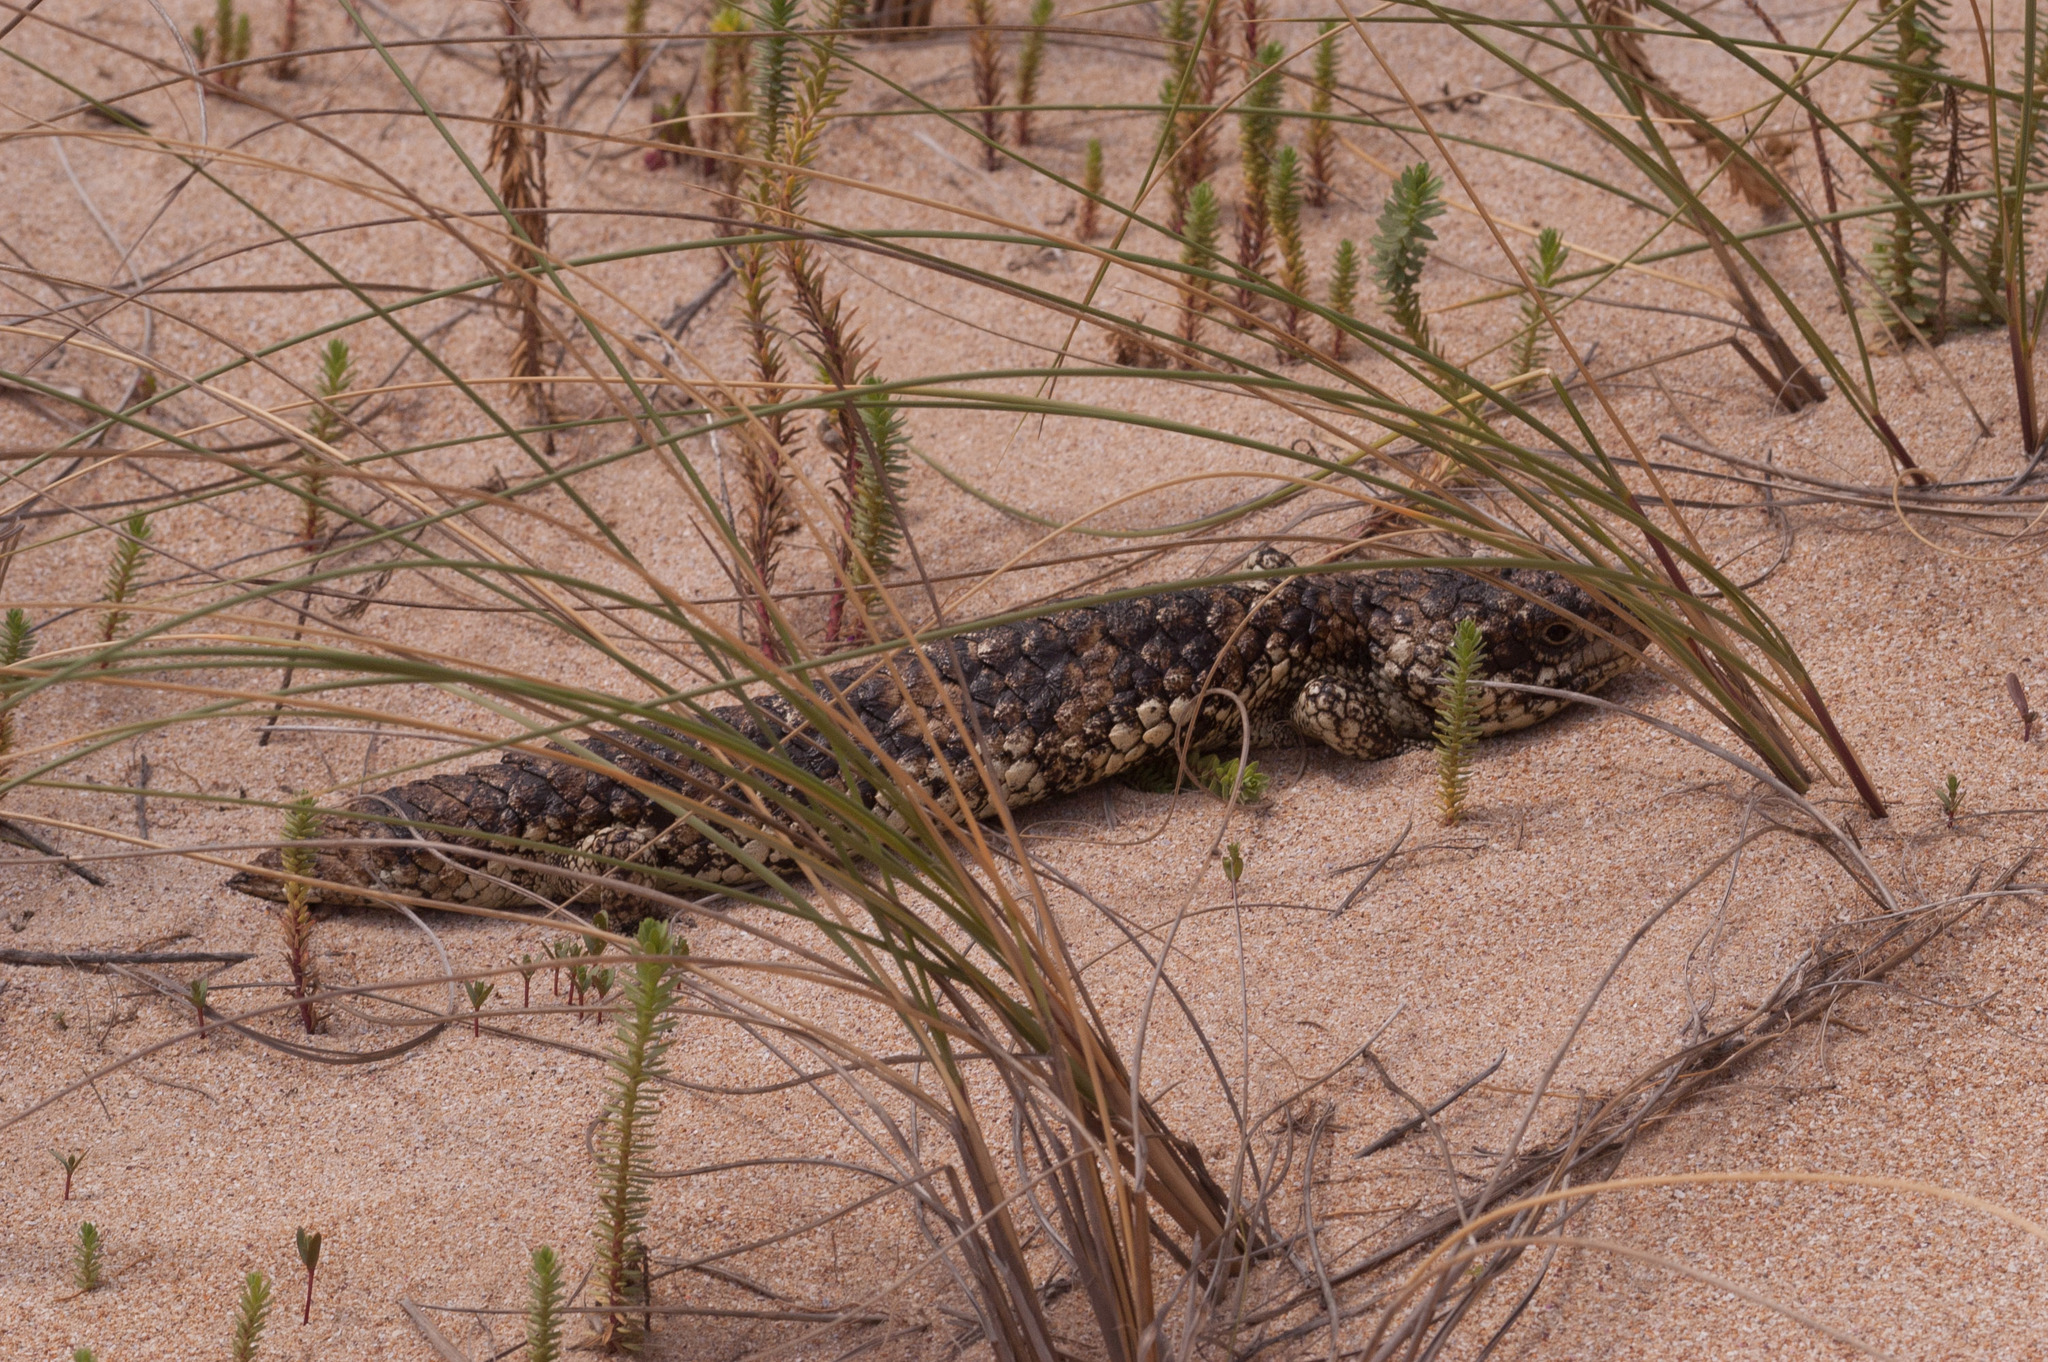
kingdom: Animalia
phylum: Chordata
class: Squamata
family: Scincidae
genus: Tiliqua
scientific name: Tiliqua rugosa
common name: Pinecone lizard
